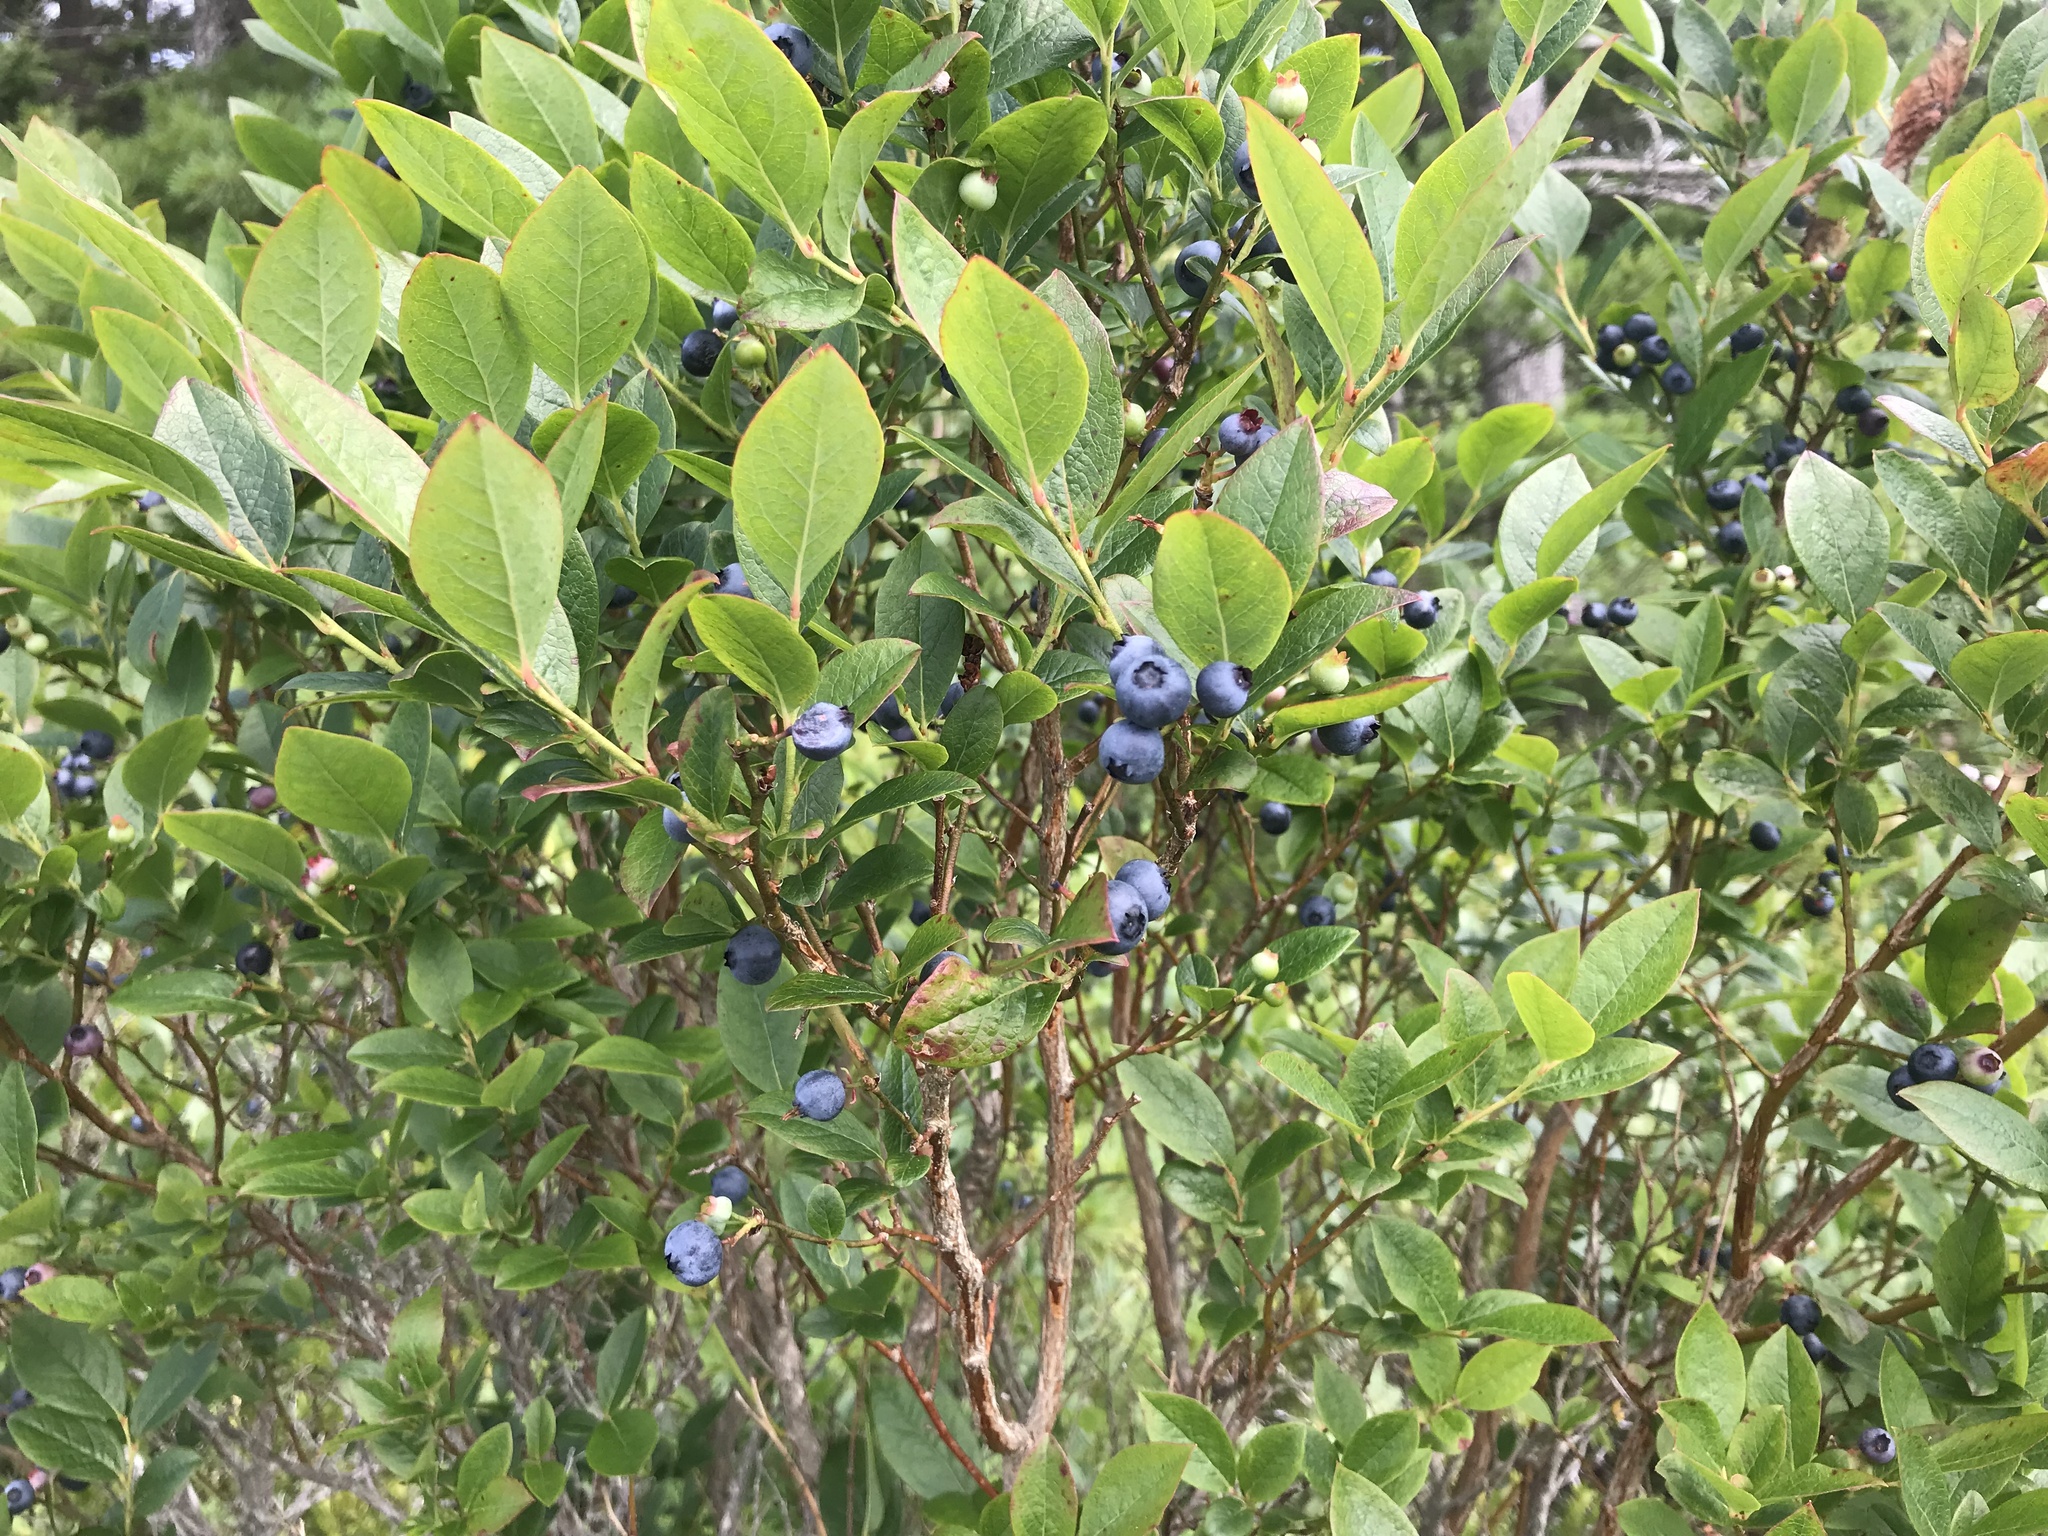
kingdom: Plantae
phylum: Tracheophyta
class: Magnoliopsida
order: Ericales
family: Ericaceae
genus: Vaccinium
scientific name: Vaccinium corymbosum
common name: Blueberry
